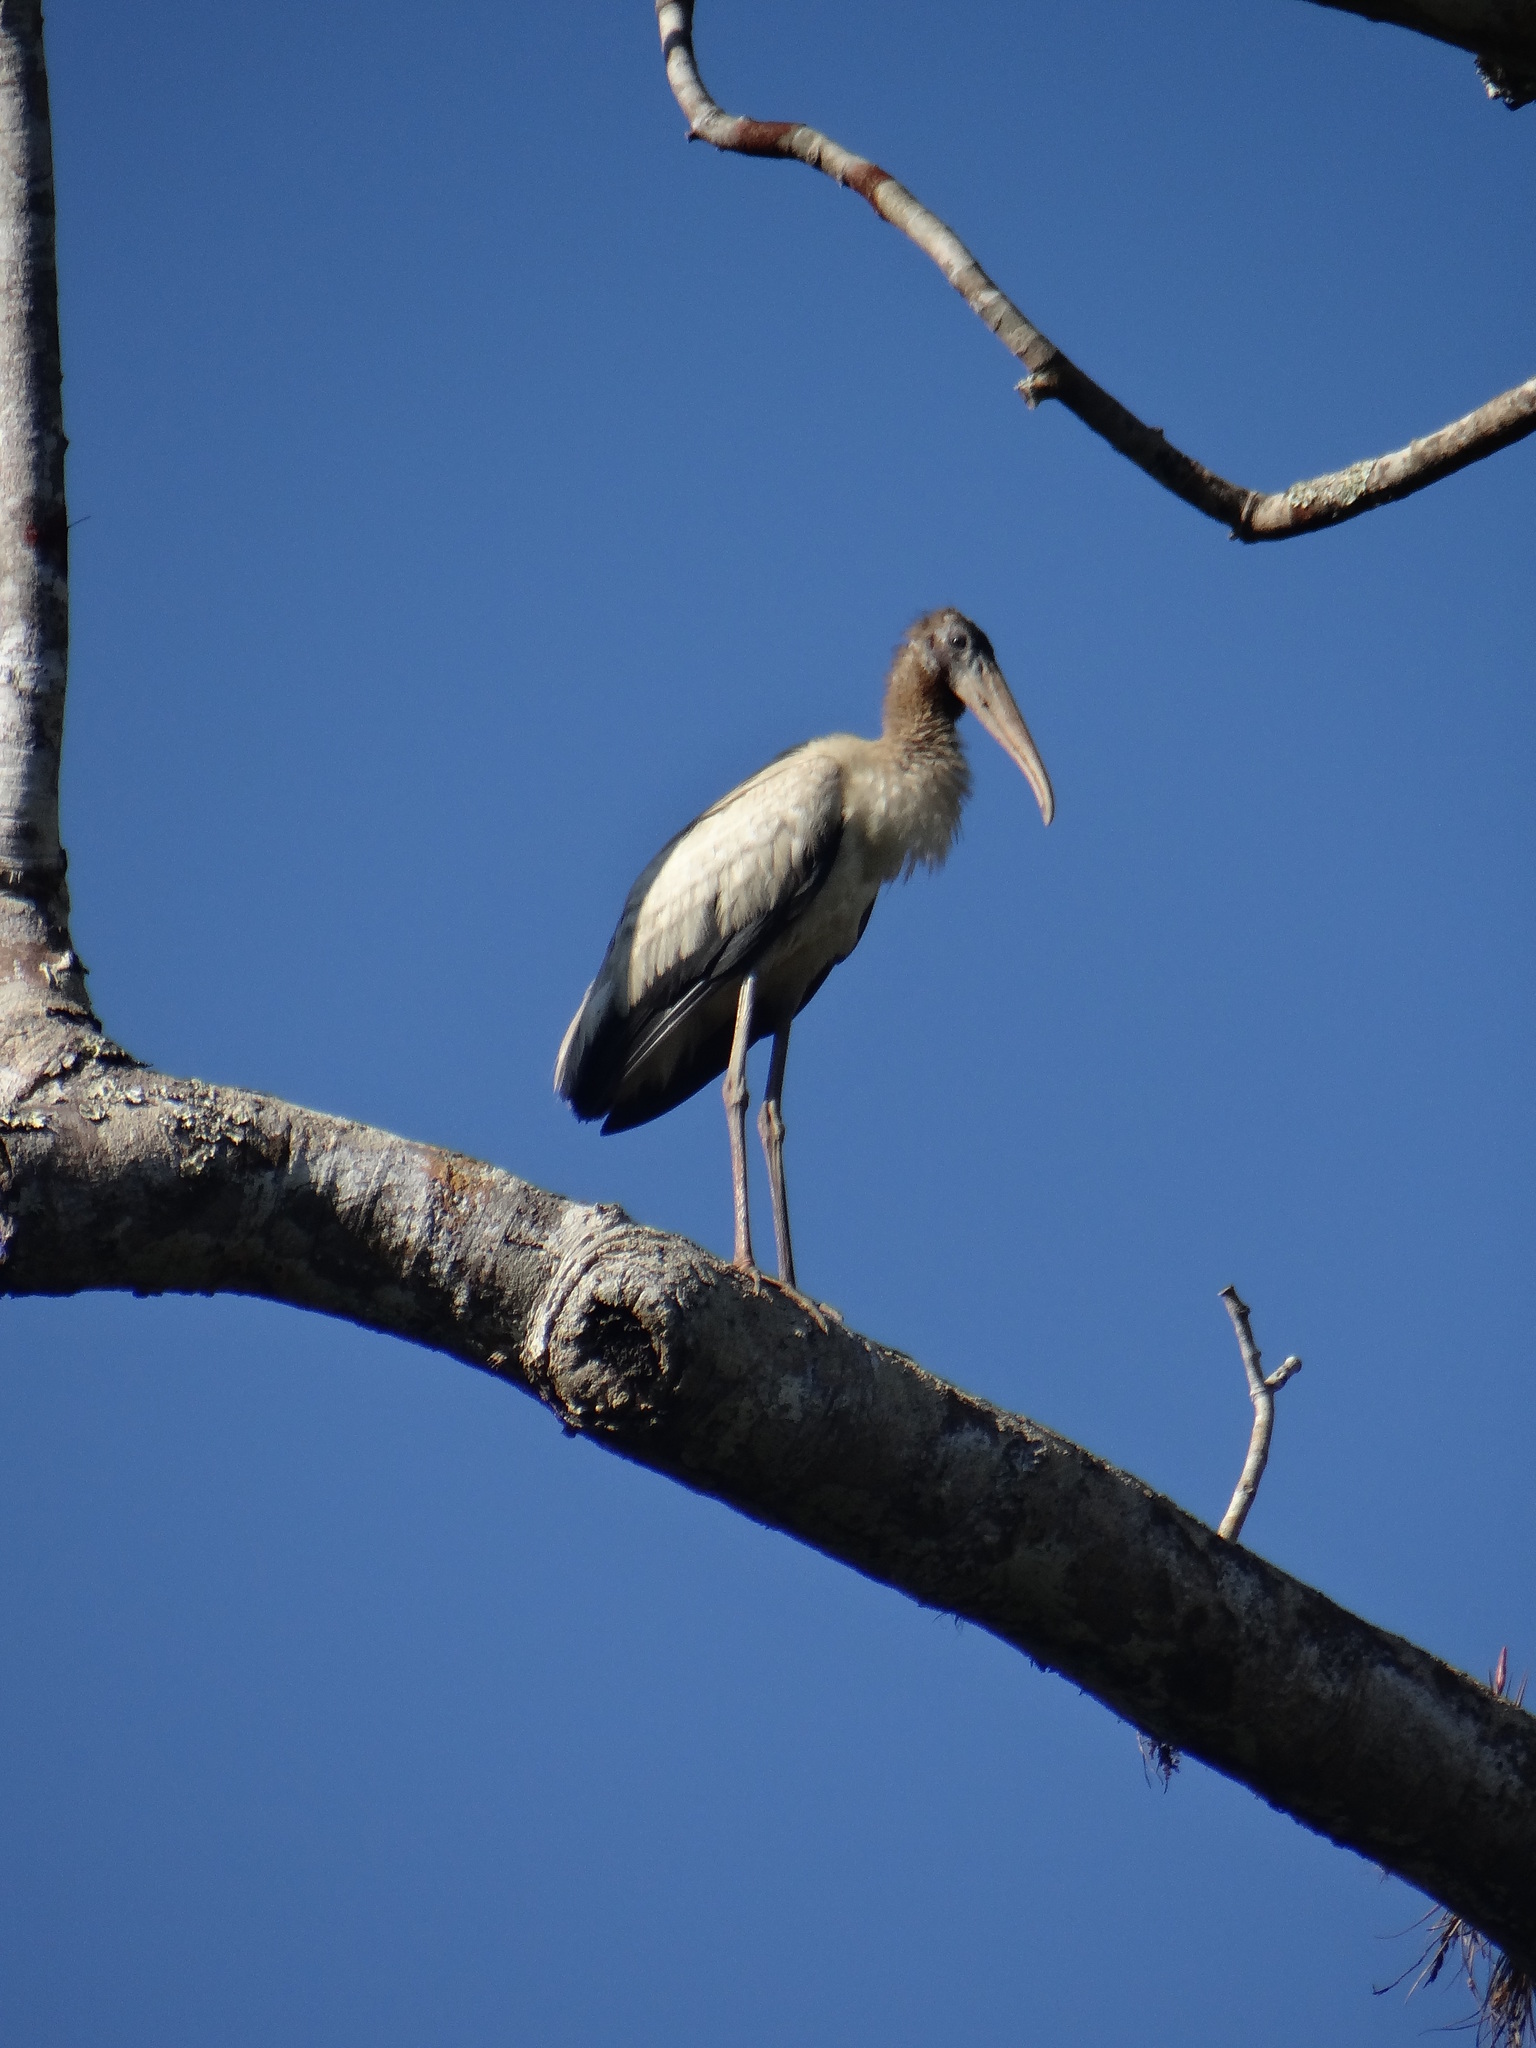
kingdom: Animalia
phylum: Chordata
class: Aves
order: Ciconiiformes
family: Ciconiidae
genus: Mycteria
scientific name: Mycteria americana
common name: Wood stork
